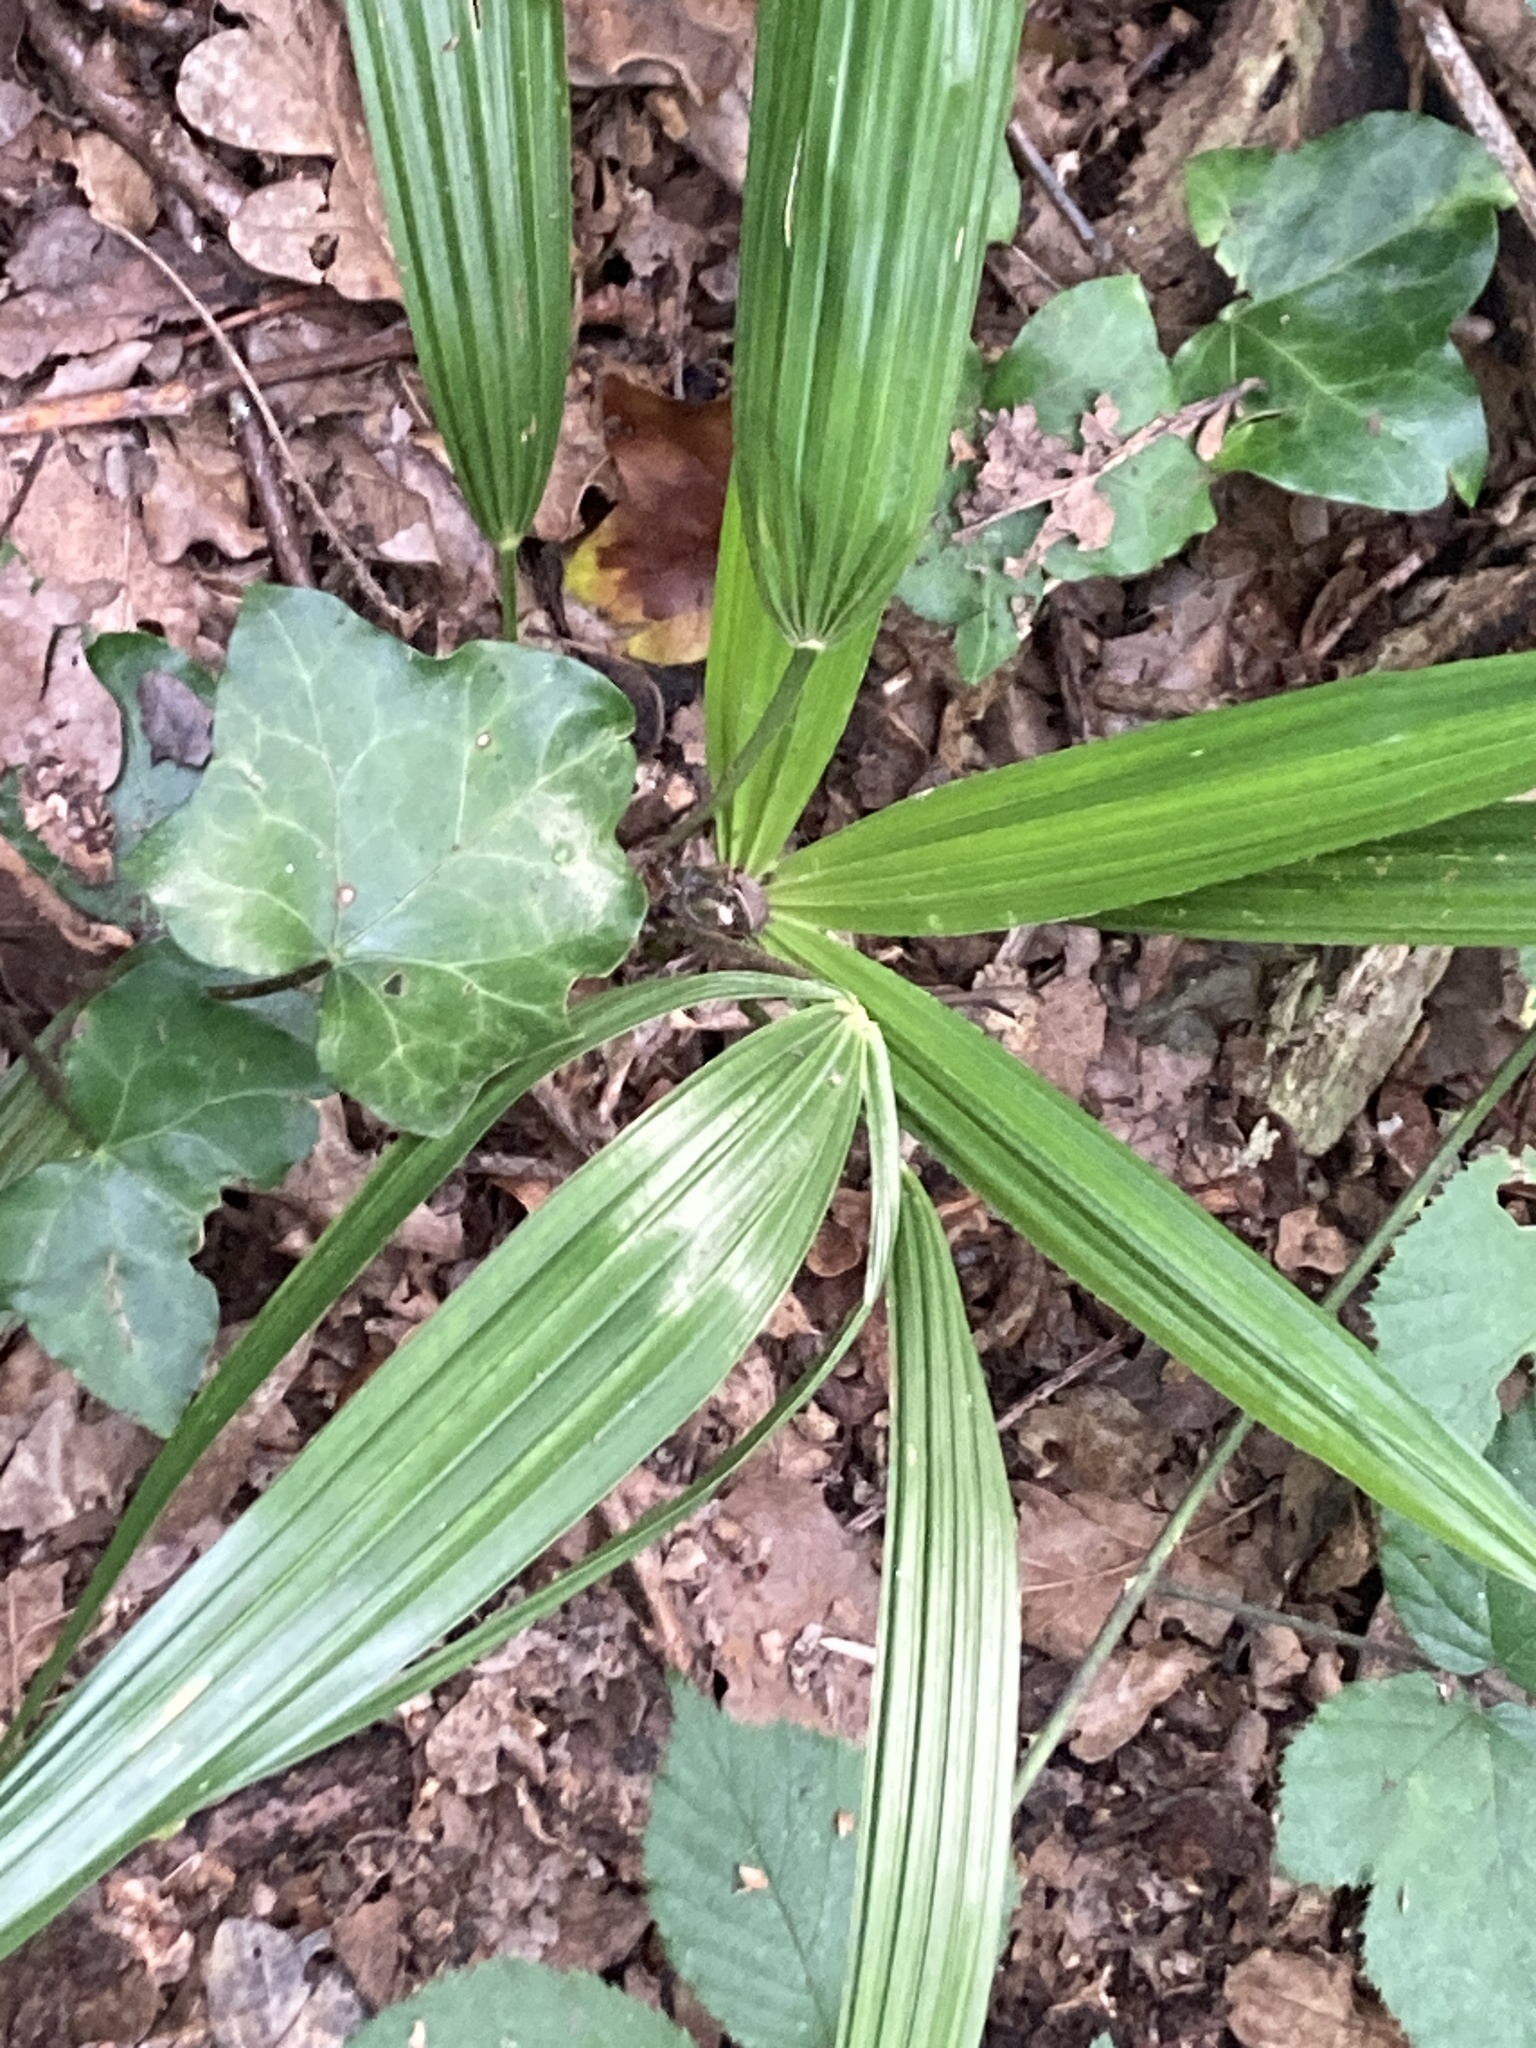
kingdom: Plantae
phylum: Tracheophyta
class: Liliopsida
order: Arecales
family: Arecaceae
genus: Trachycarpus
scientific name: Trachycarpus fortunei
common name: Chusan palm
